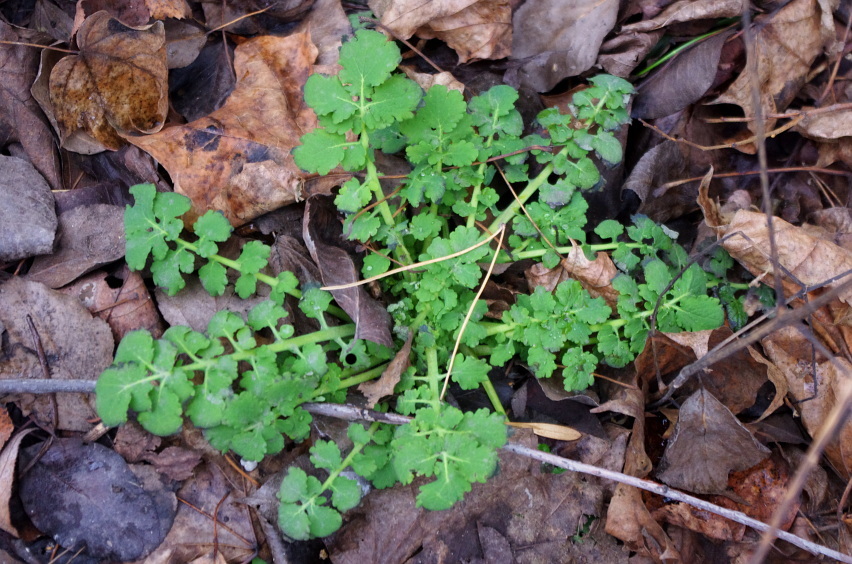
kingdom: Plantae
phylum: Tracheophyta
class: Magnoliopsida
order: Ranunculales
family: Papaveraceae
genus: Chelidonium
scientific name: Chelidonium majus
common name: Greater celandine
